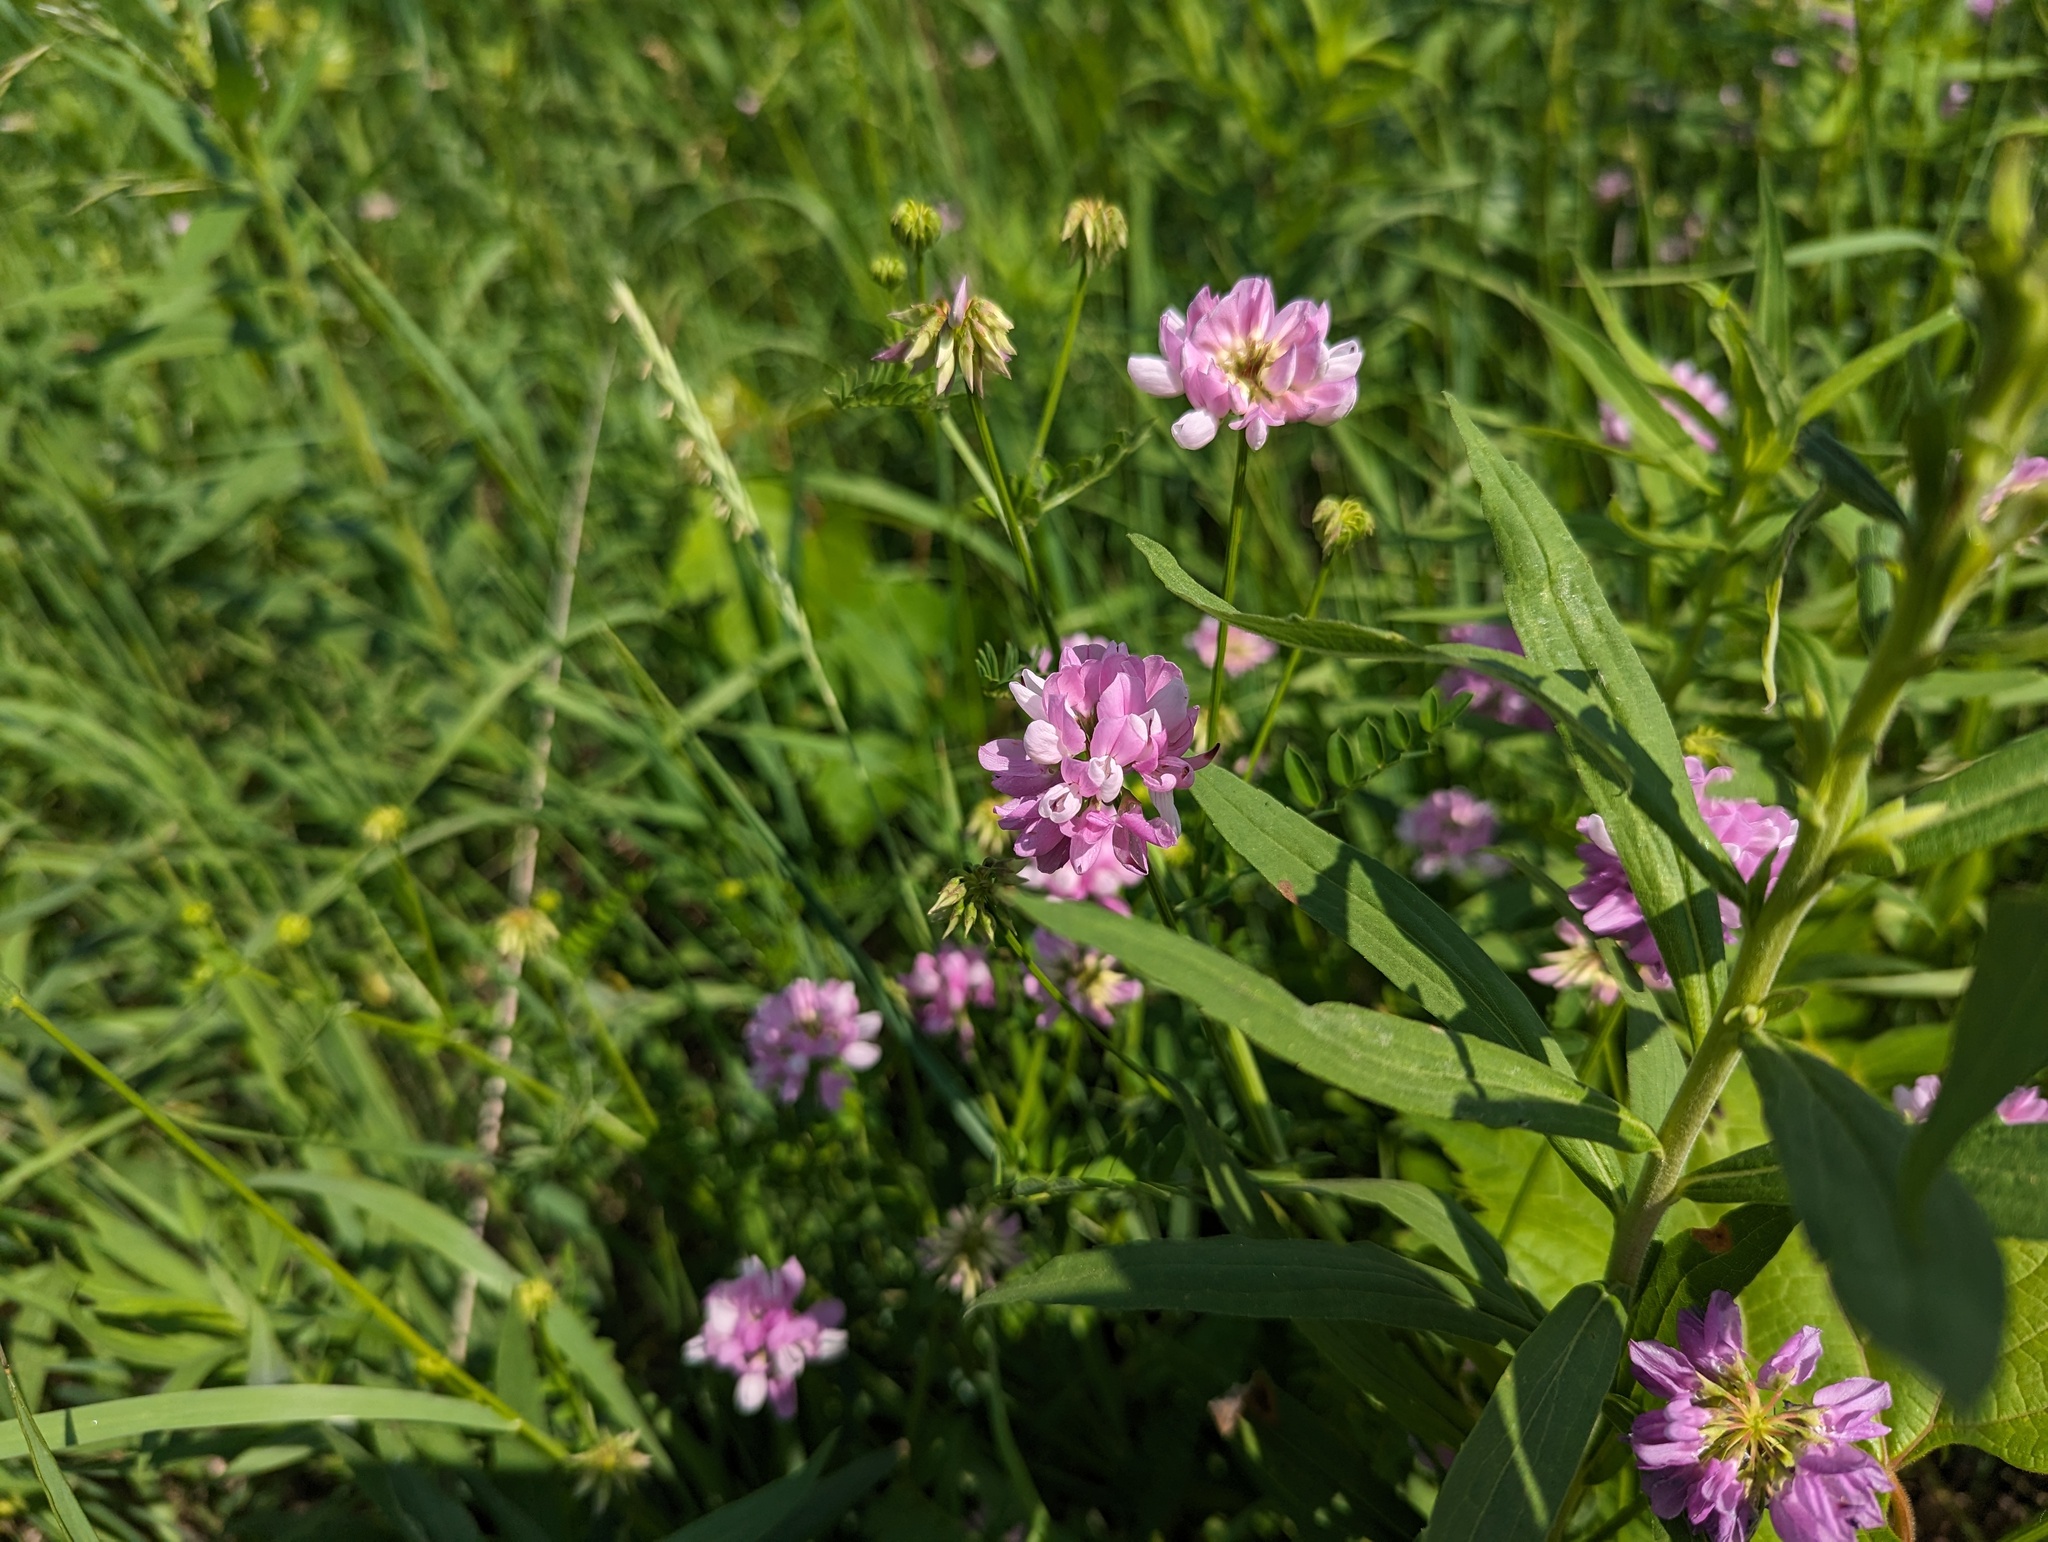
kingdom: Plantae
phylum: Tracheophyta
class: Magnoliopsida
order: Fabales
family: Fabaceae
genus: Coronilla
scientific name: Coronilla varia
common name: Crownvetch
